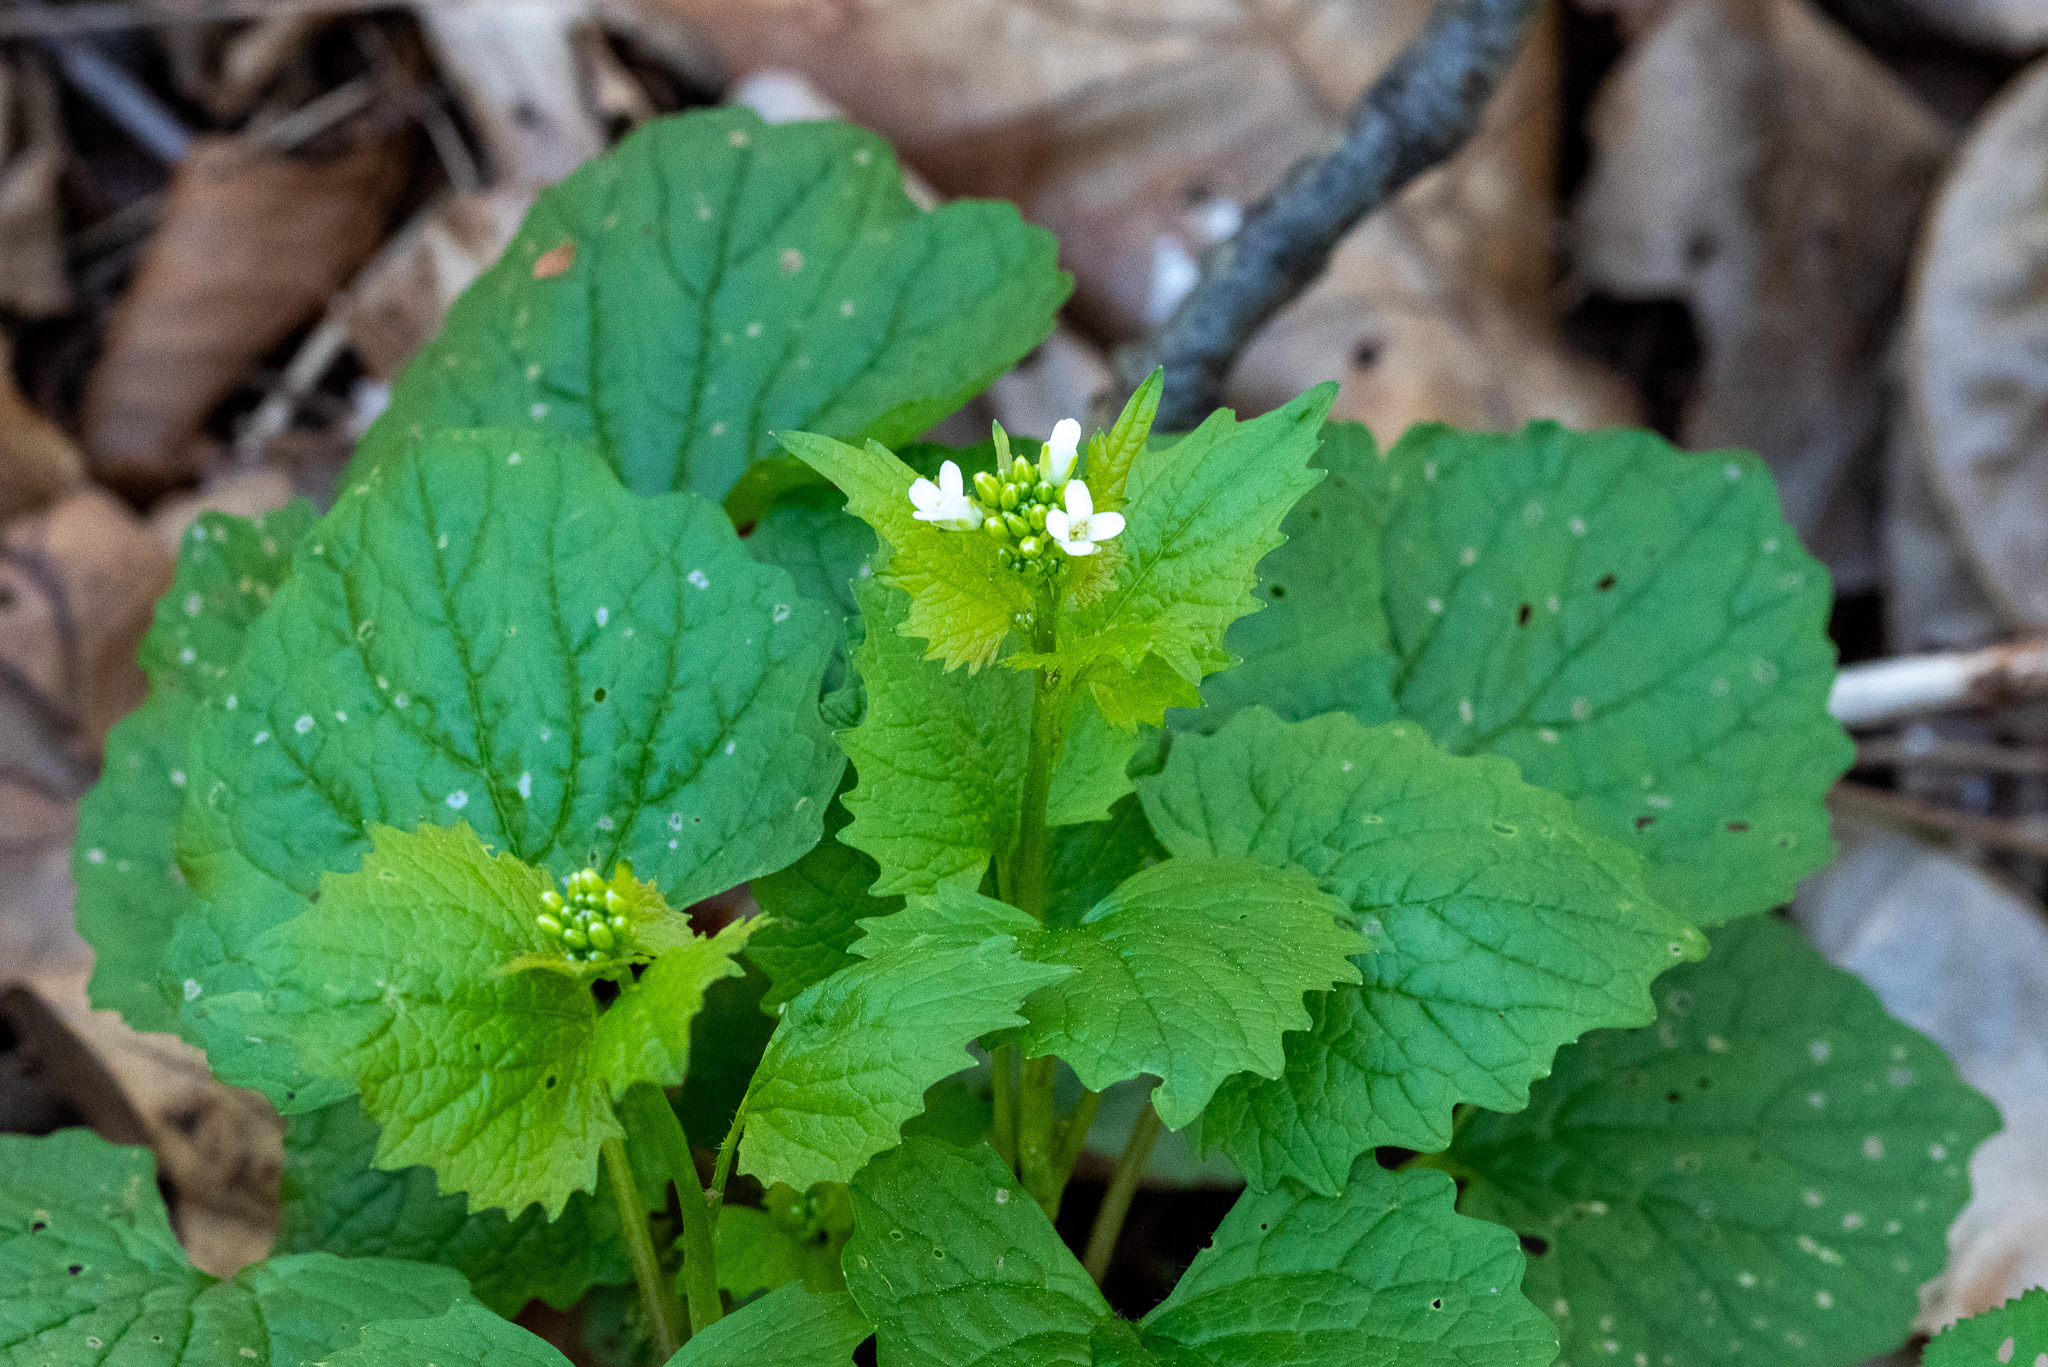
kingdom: Plantae
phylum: Tracheophyta
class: Magnoliopsida
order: Brassicales
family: Brassicaceae
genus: Alliaria
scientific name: Alliaria petiolata
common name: Garlic mustard
